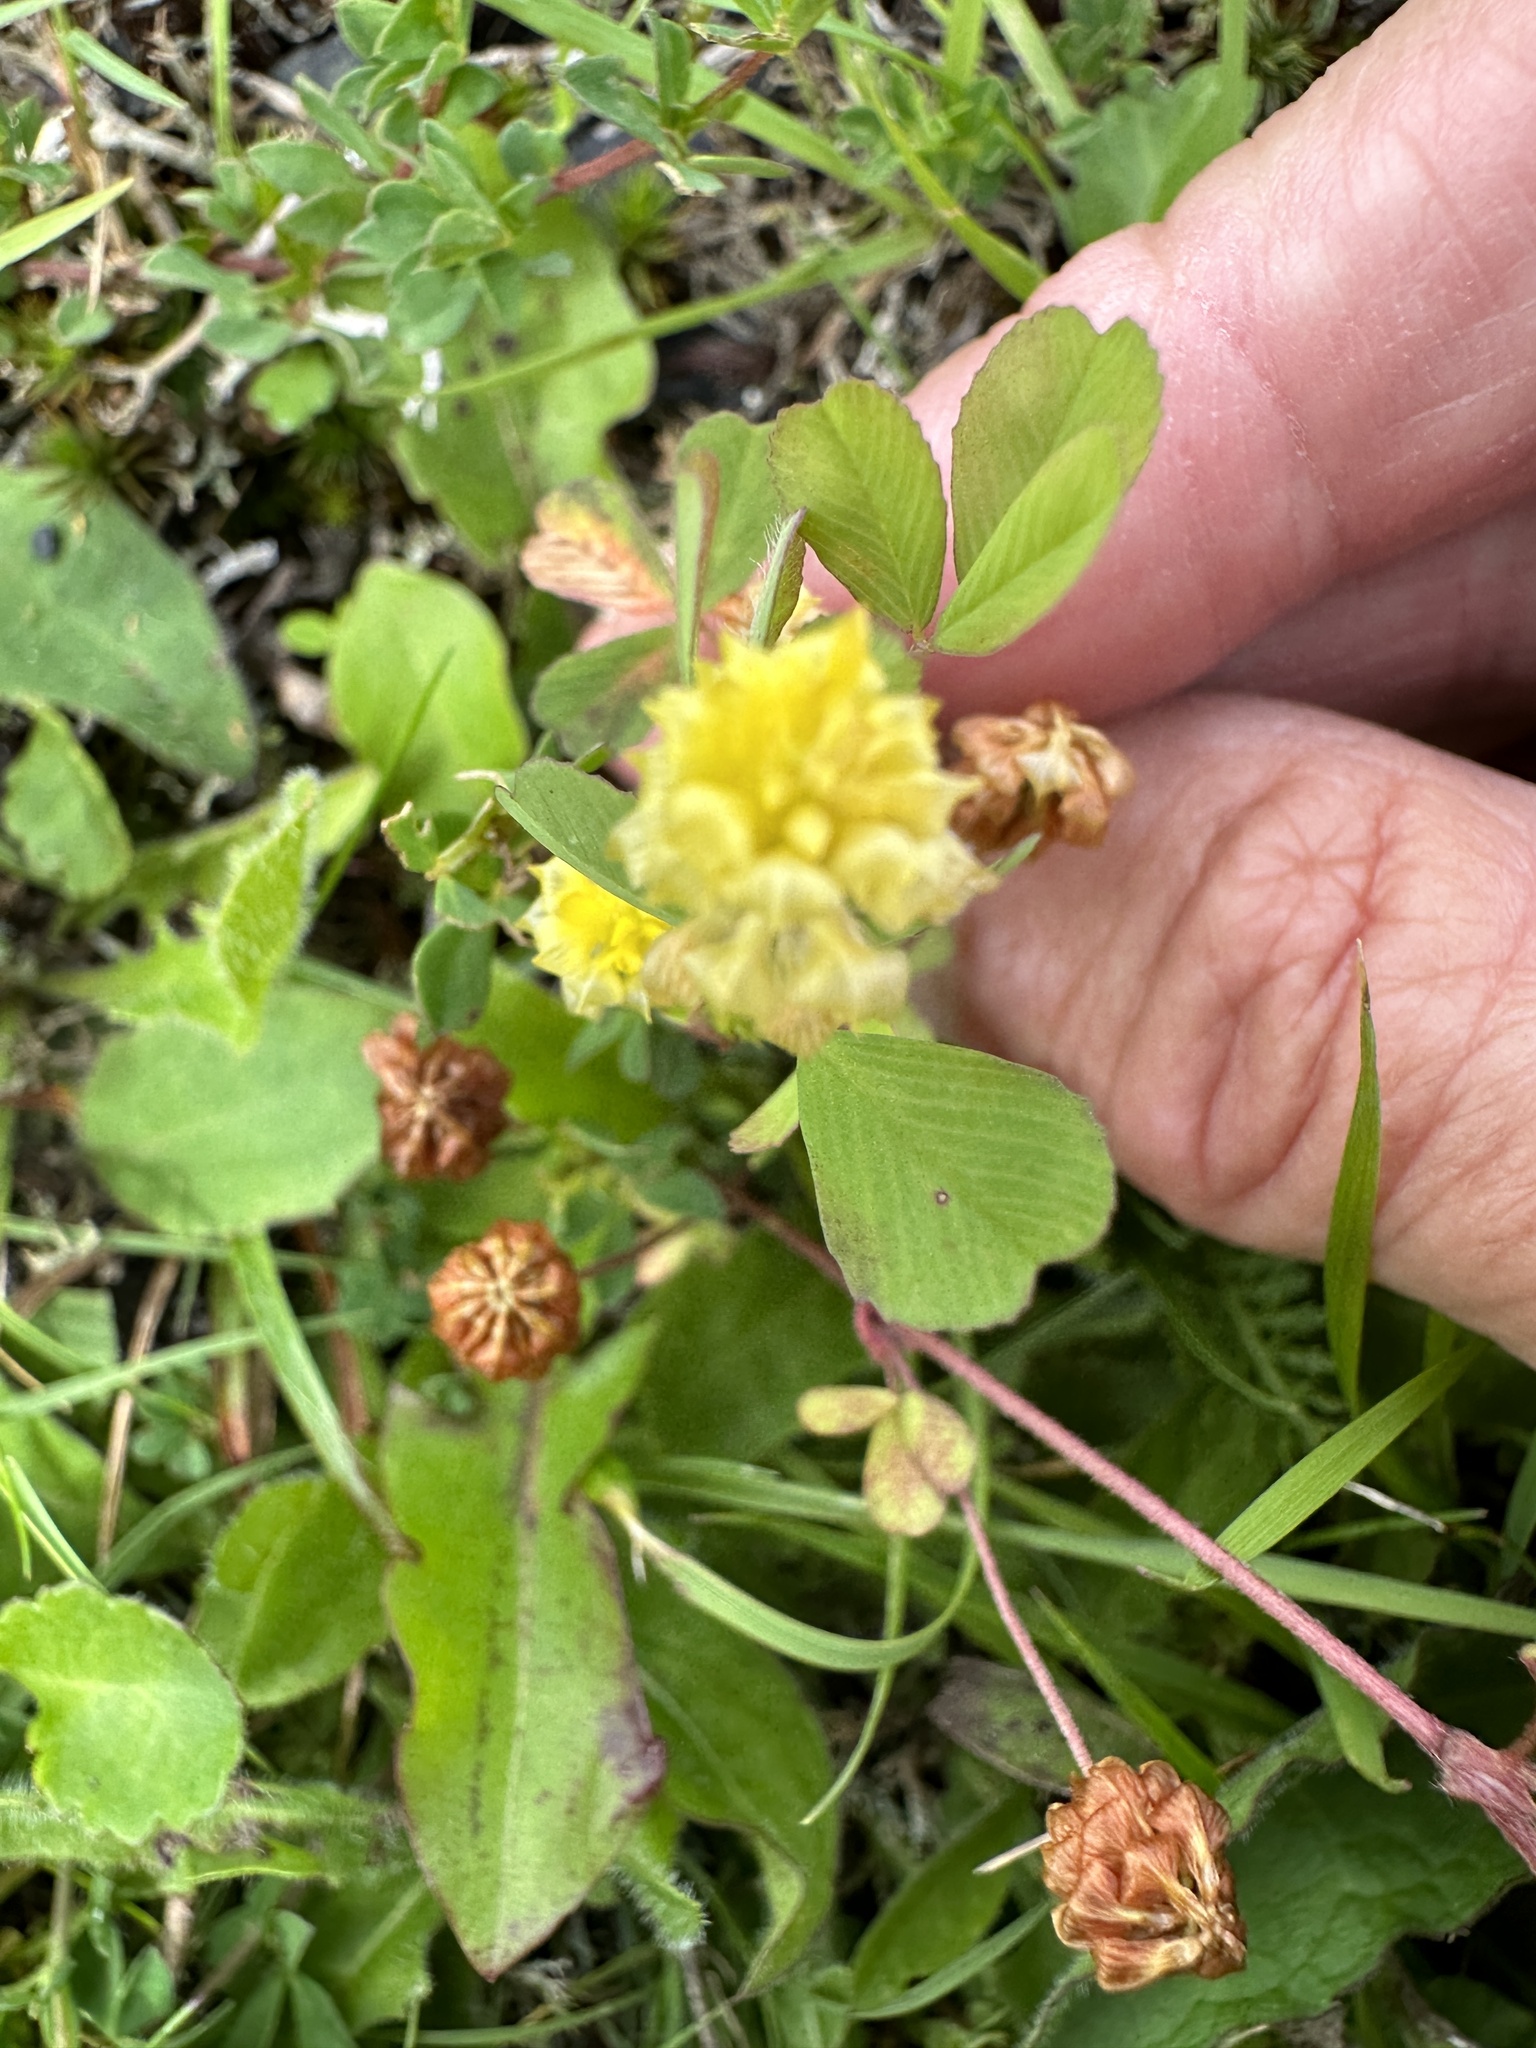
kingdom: Plantae
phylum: Tracheophyta
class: Magnoliopsida
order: Fabales
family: Fabaceae
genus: Trifolium
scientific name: Trifolium campestre
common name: Field clover
